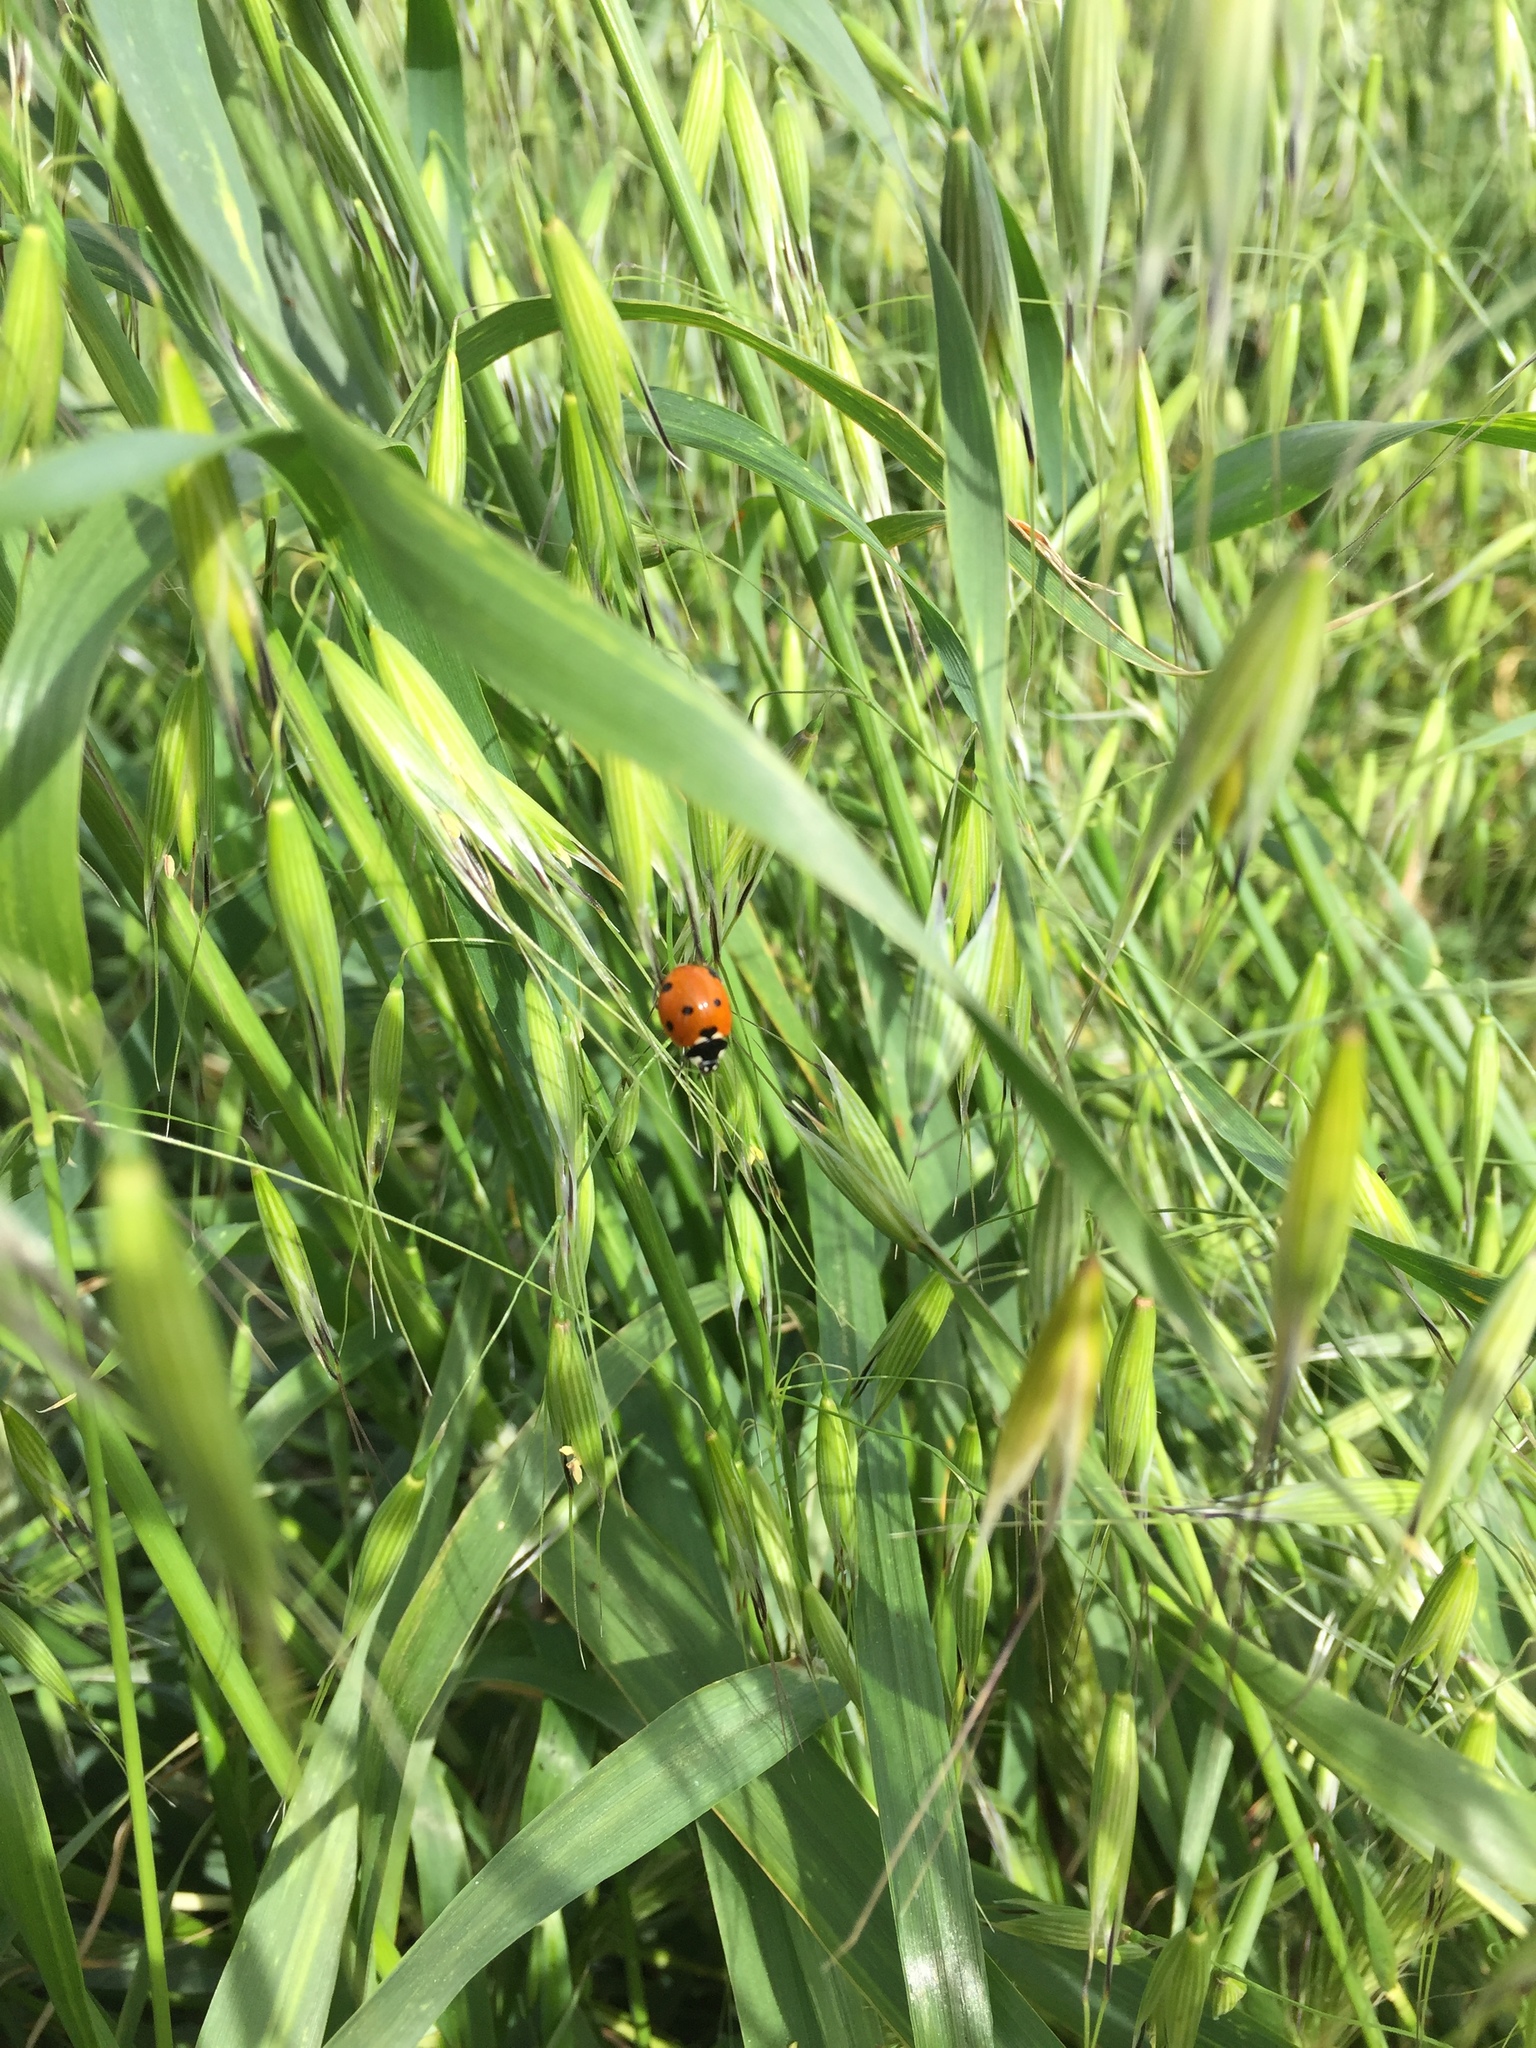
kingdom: Animalia
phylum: Arthropoda
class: Insecta
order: Coleoptera
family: Coccinellidae
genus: Coccinella
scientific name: Coccinella septempunctata
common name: Sevenspotted lady beetle
